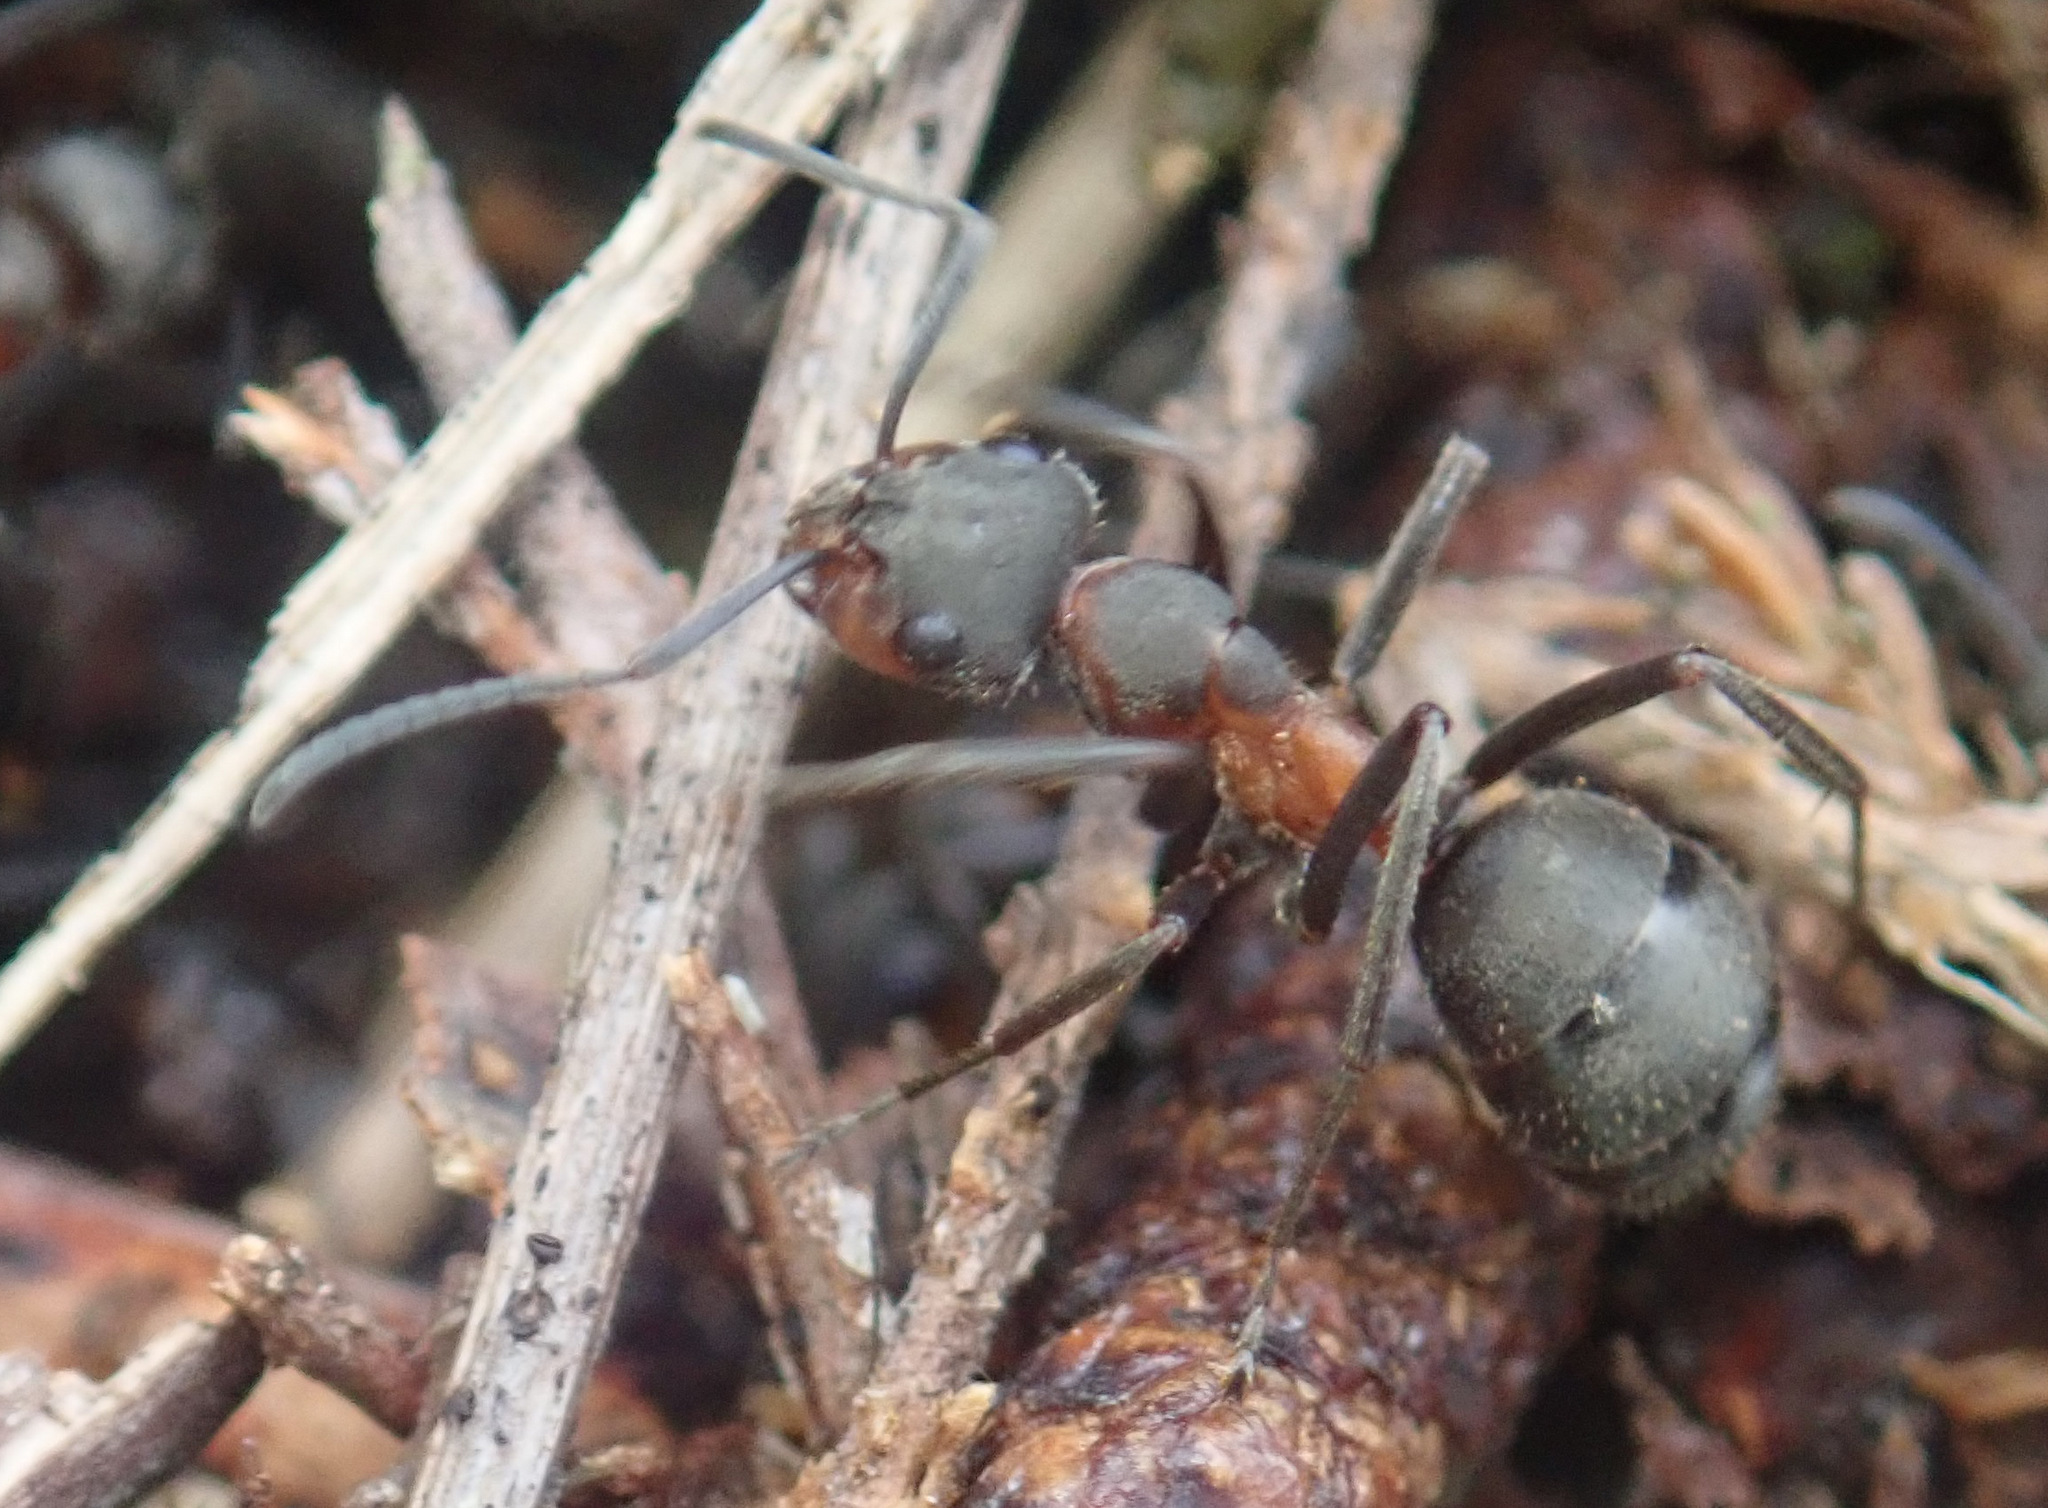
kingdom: Animalia
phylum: Arthropoda
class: Insecta
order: Hymenoptera
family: Formicidae
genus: Formica
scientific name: Formica pratensis
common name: European red wood ant
